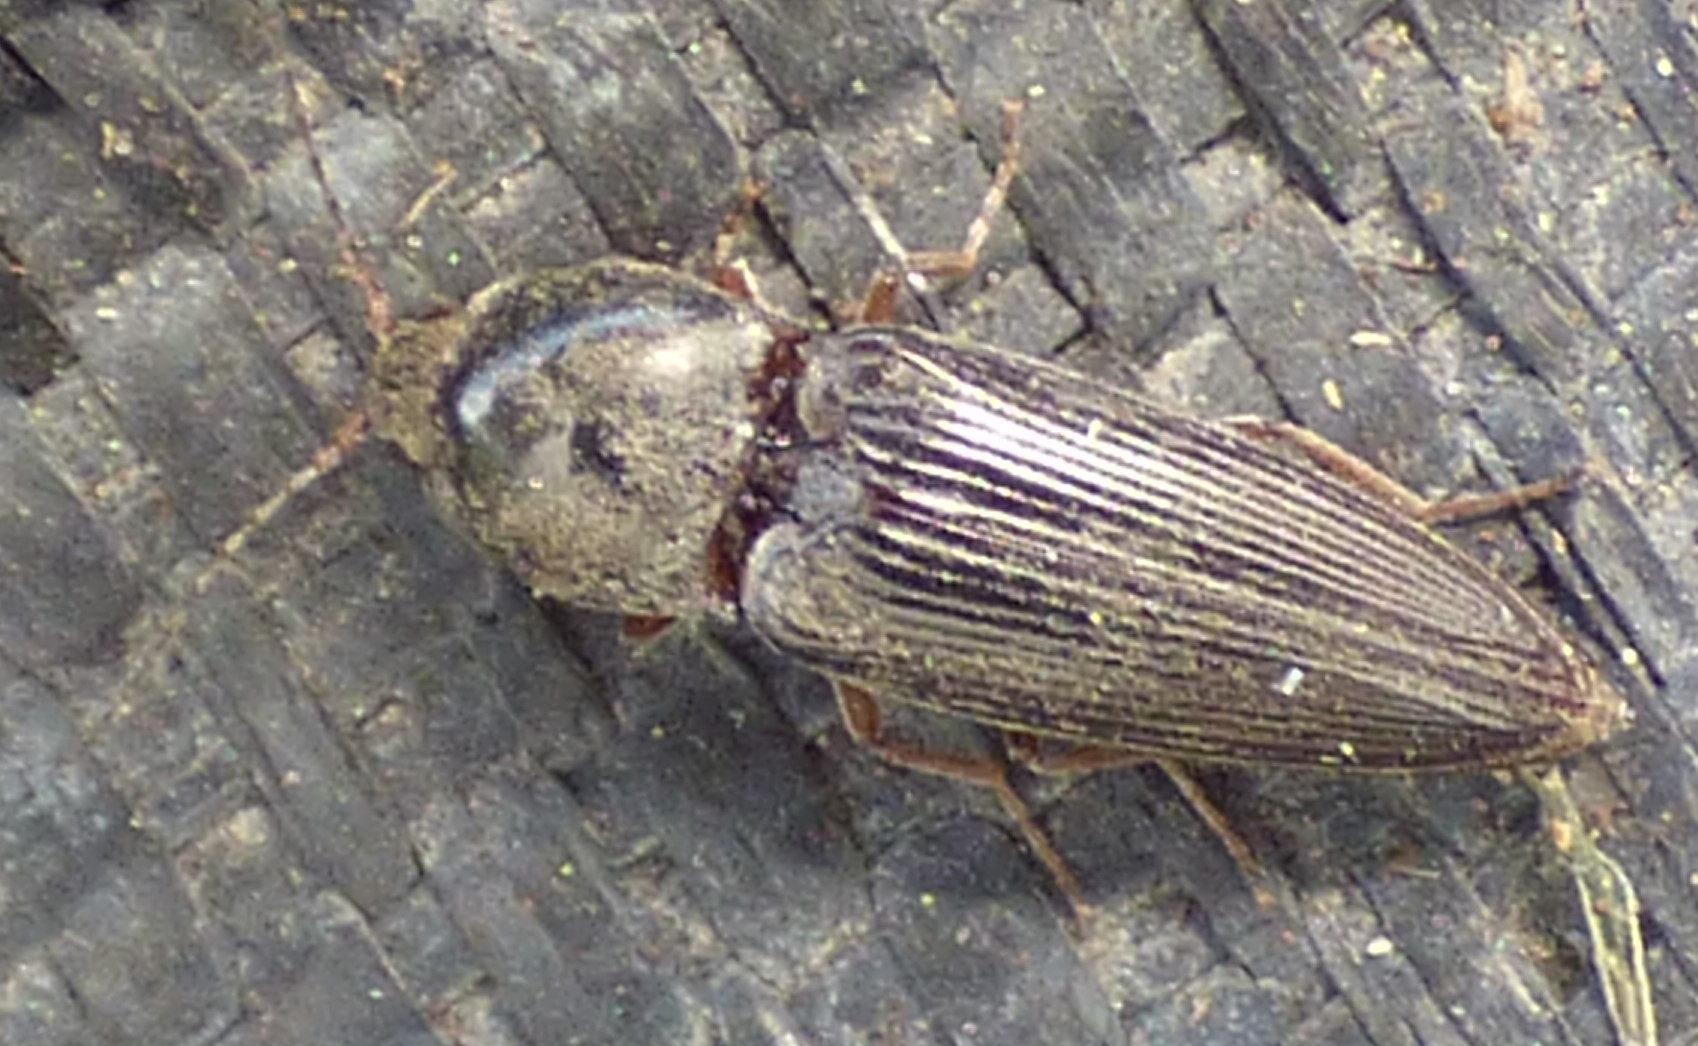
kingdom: Animalia
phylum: Arthropoda
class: Insecta
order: Coleoptera
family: Elateridae
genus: Cardiophorus
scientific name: Cardiophorus convexus
